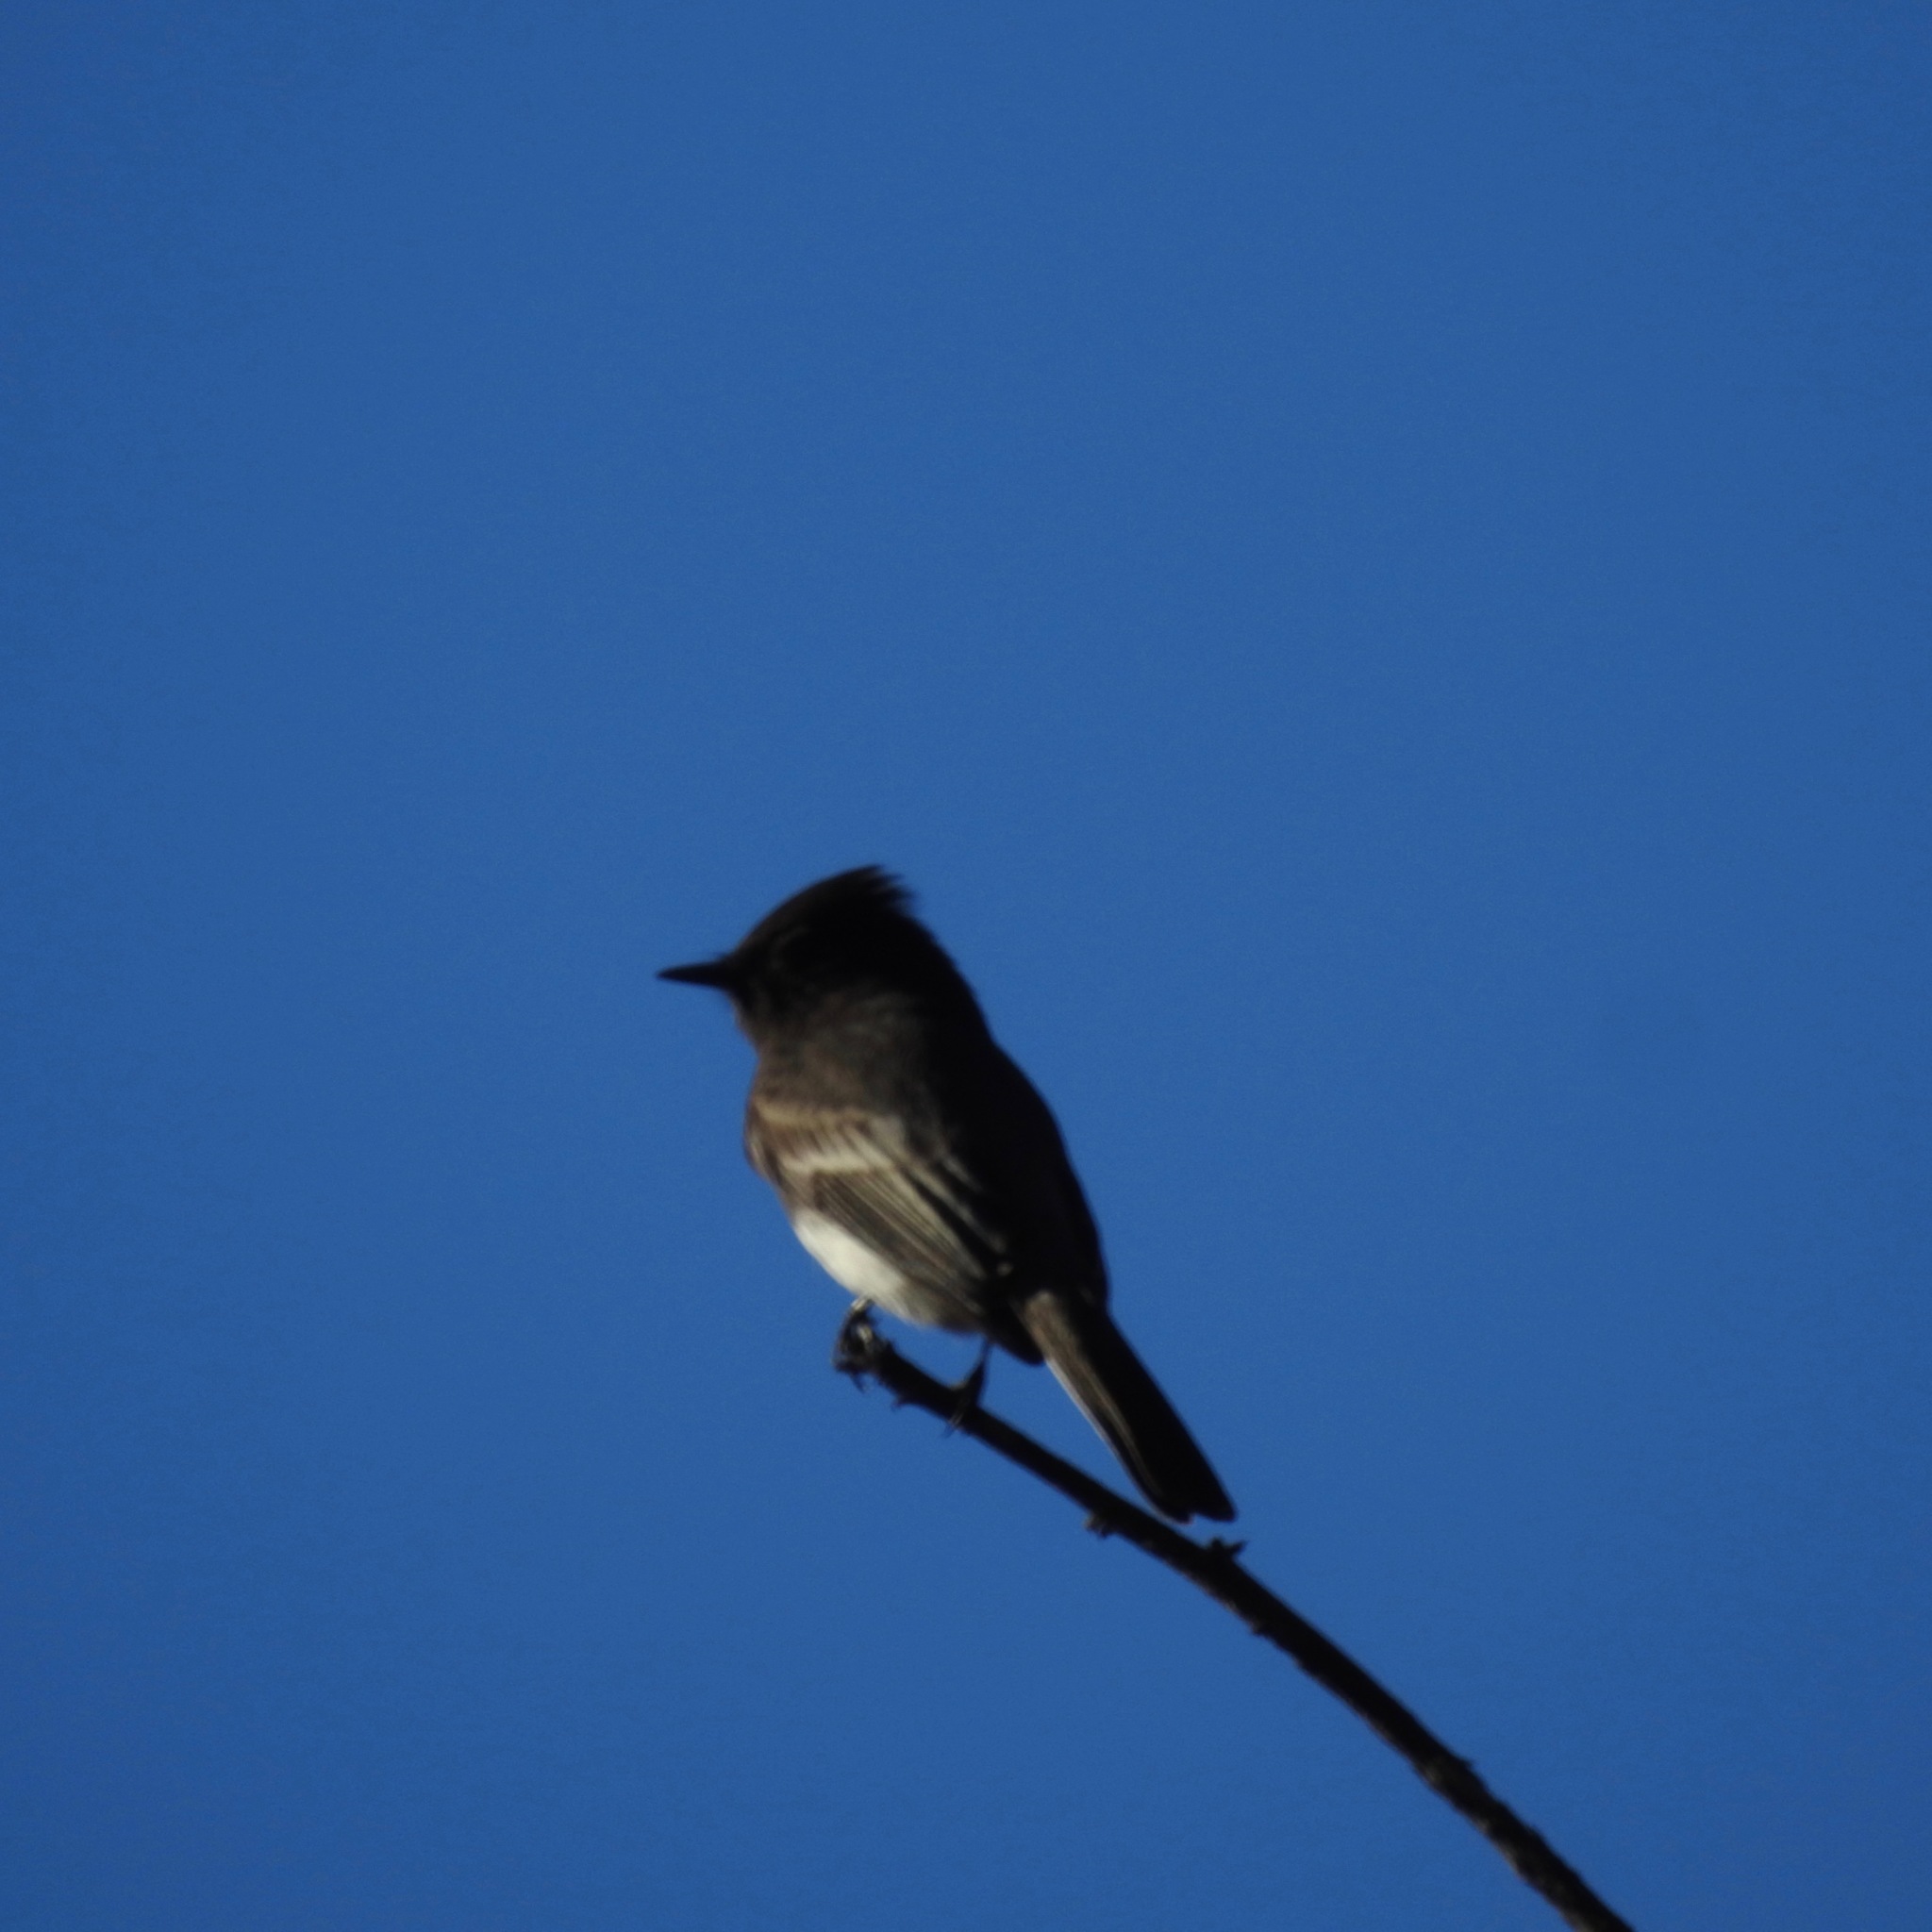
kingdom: Animalia
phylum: Chordata
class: Aves
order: Passeriformes
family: Tyrannidae
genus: Sayornis
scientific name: Sayornis nigricans
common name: Black phoebe
